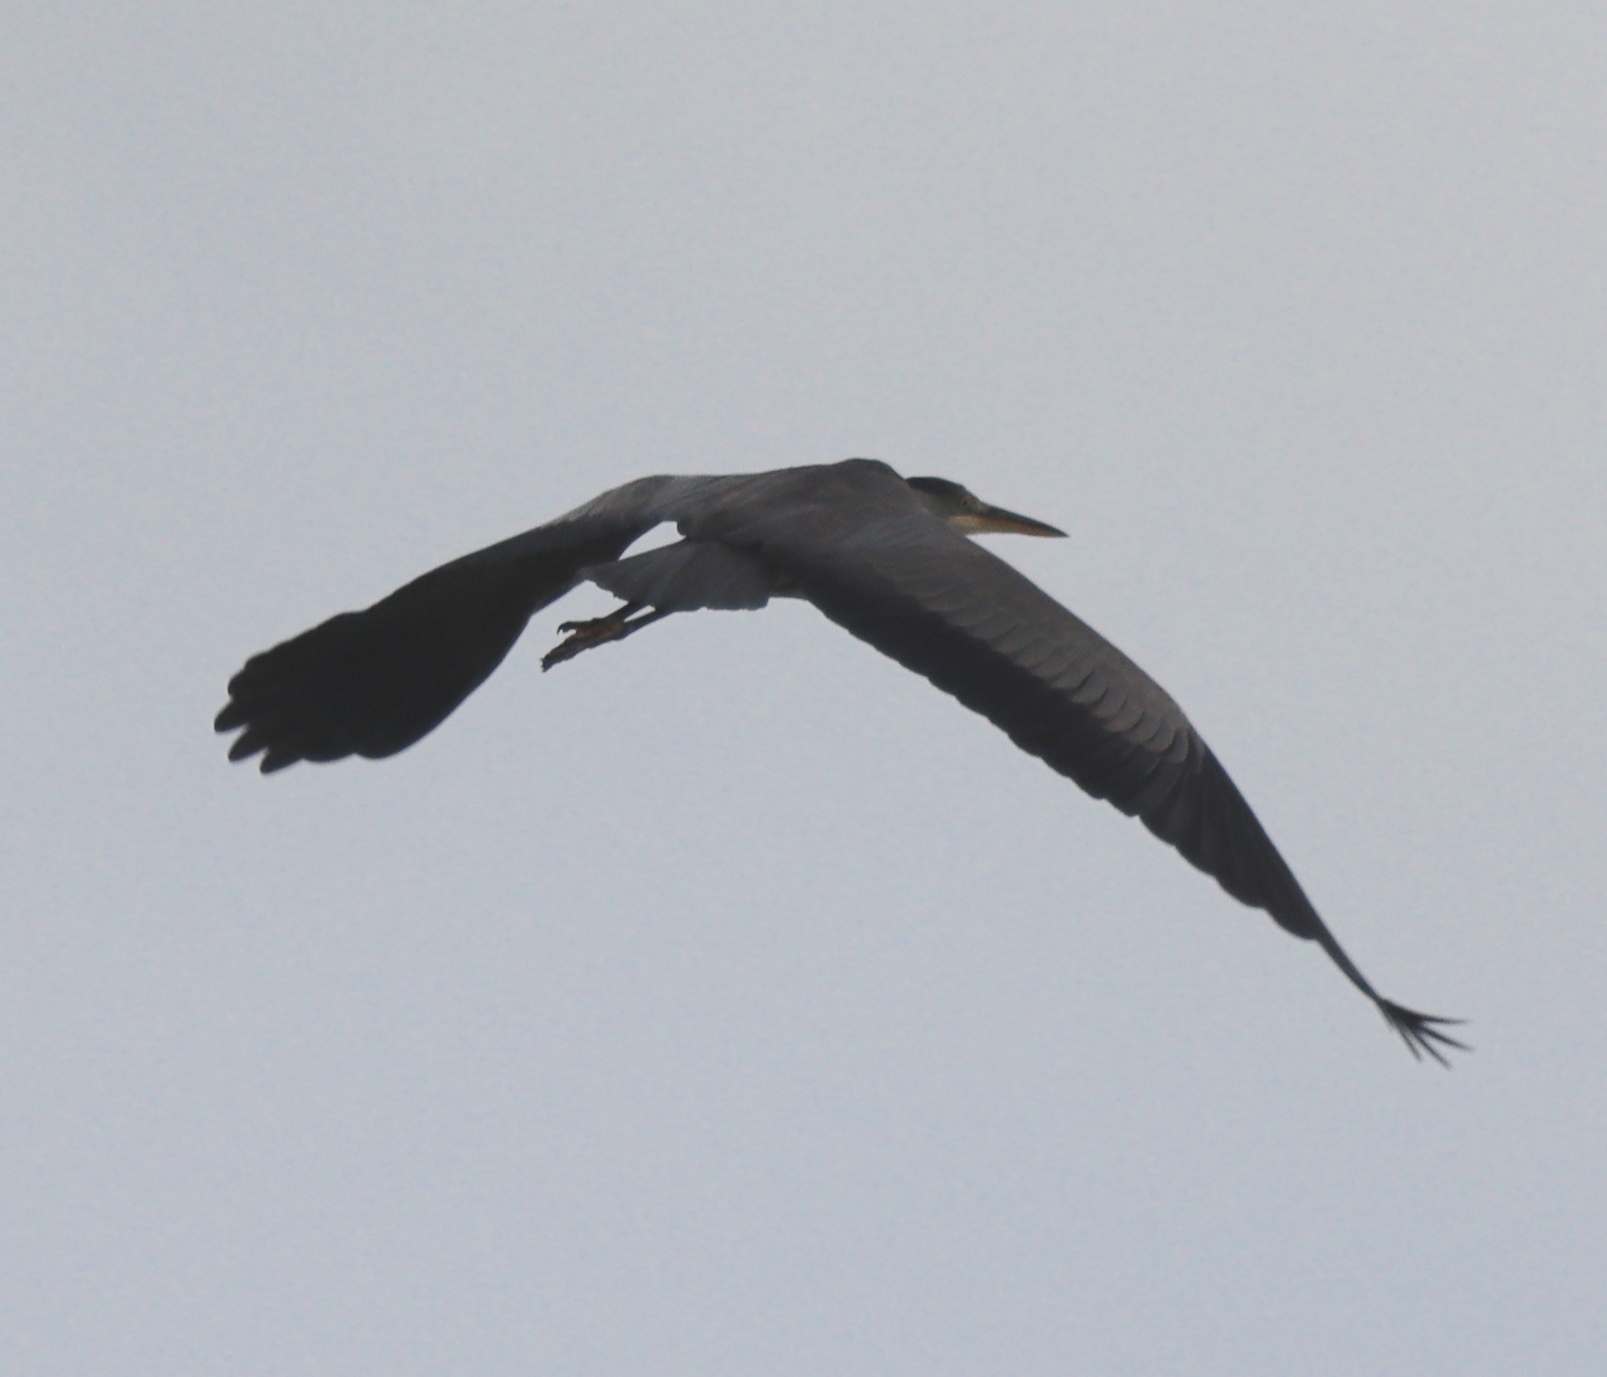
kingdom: Animalia
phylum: Chordata
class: Aves
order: Pelecaniformes
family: Ardeidae
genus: Ardea
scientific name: Ardea cinerea
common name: Grey heron
